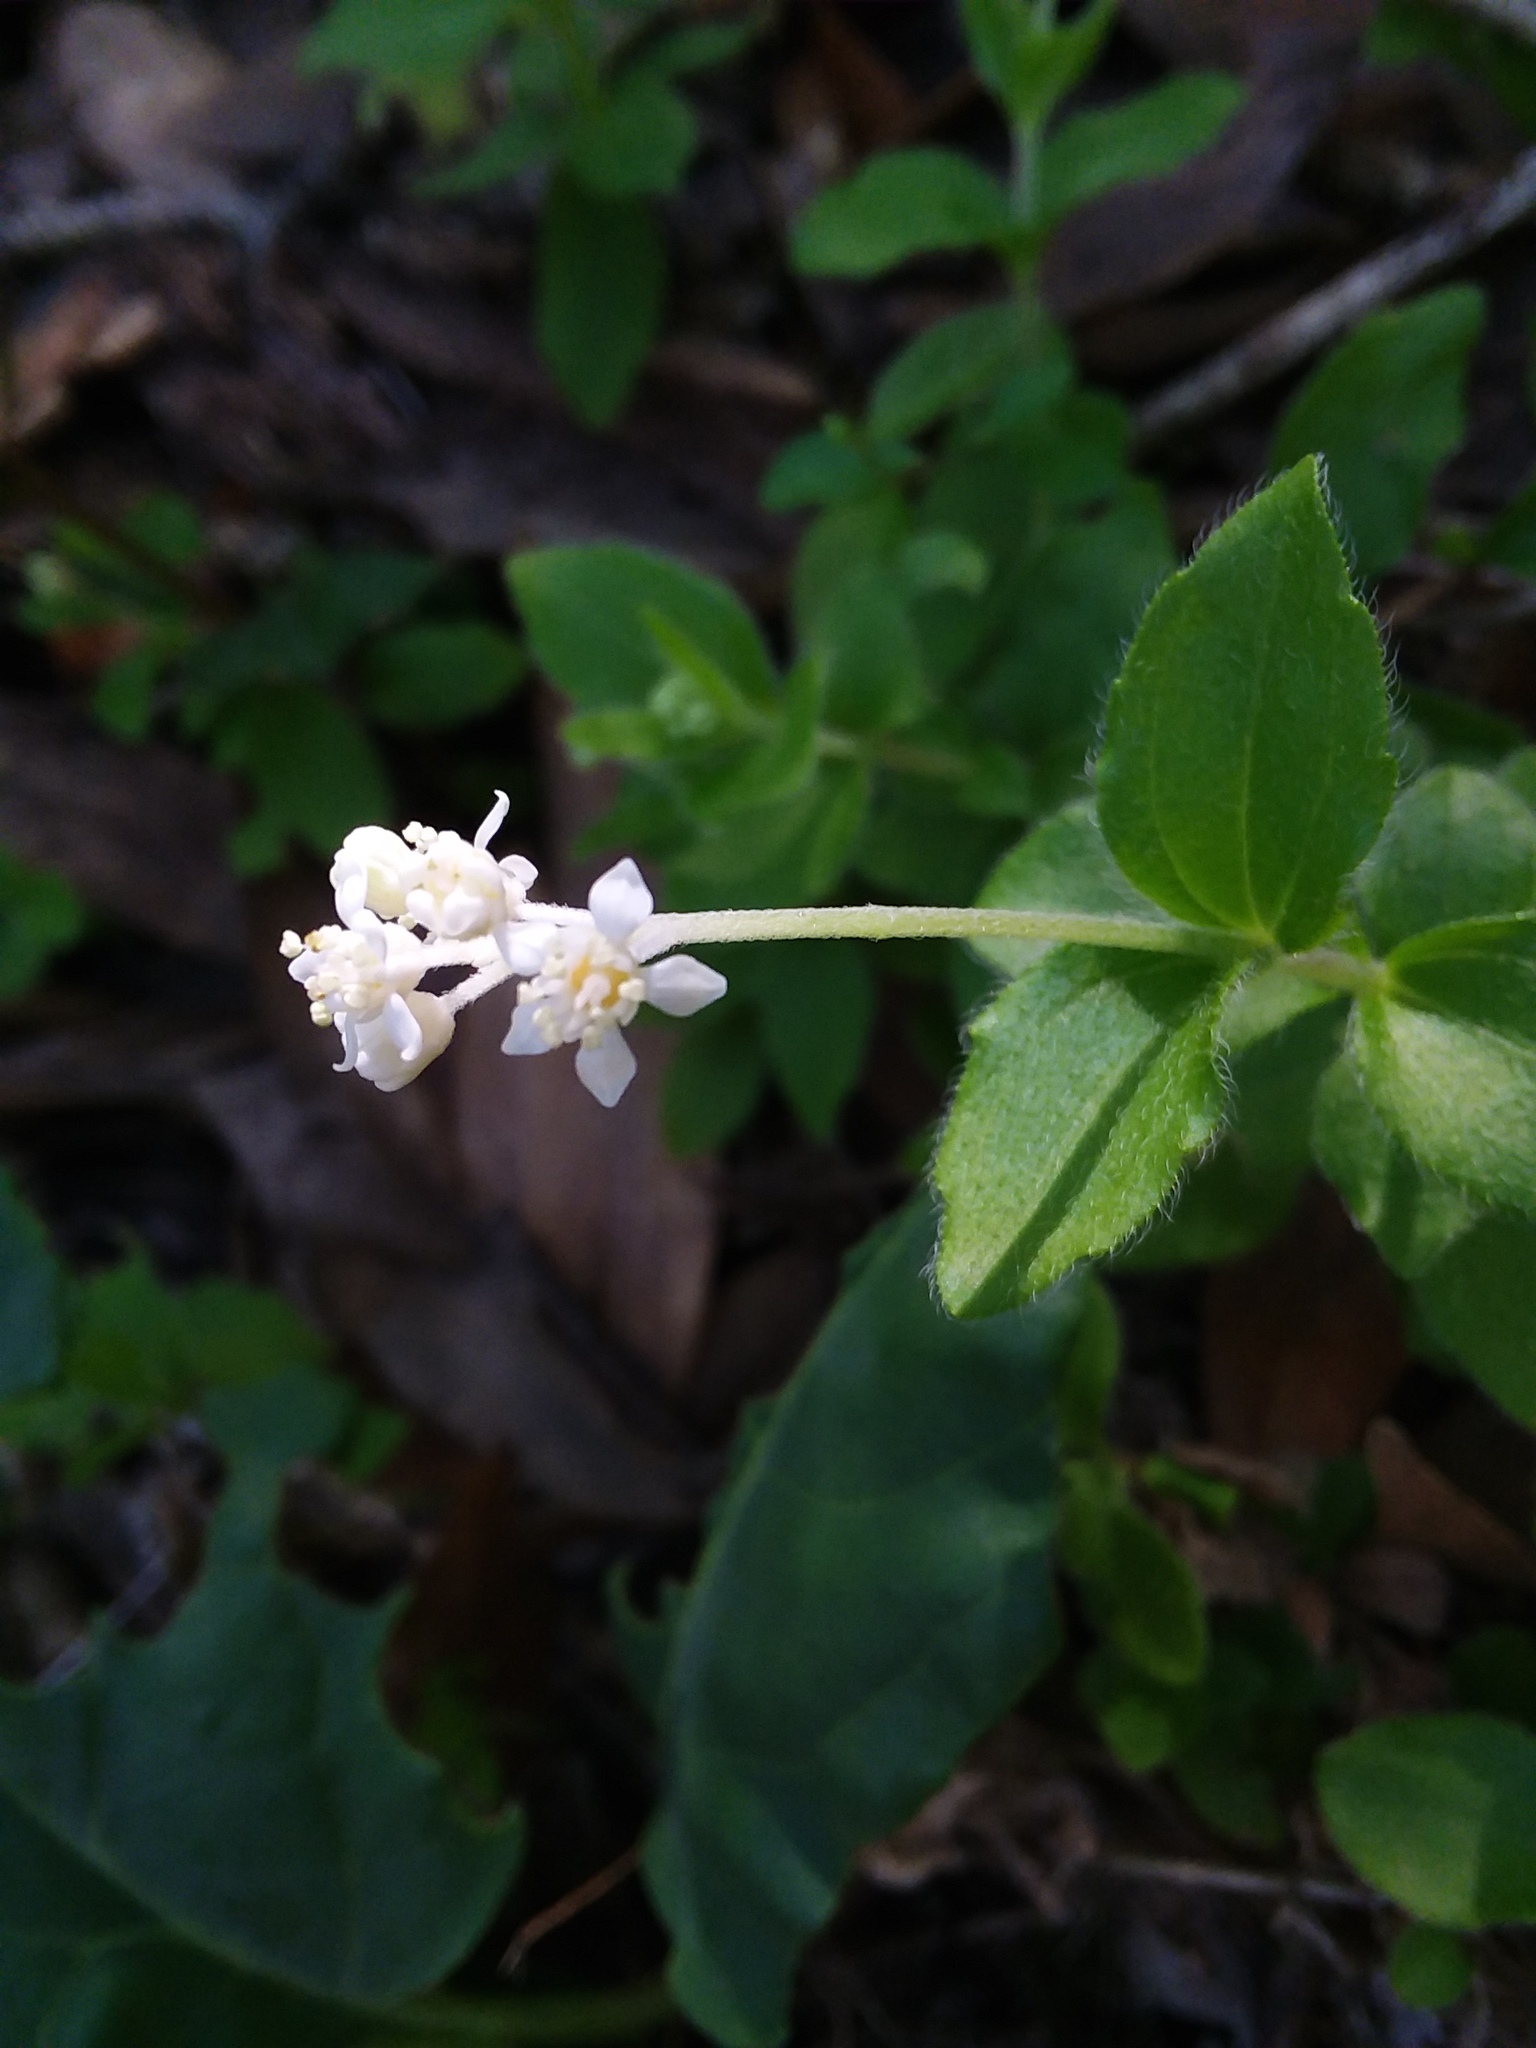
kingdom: Plantae
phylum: Tracheophyta
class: Magnoliopsida
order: Cornales
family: Hydrangeaceae
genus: Whipplea
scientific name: Whipplea modesta
